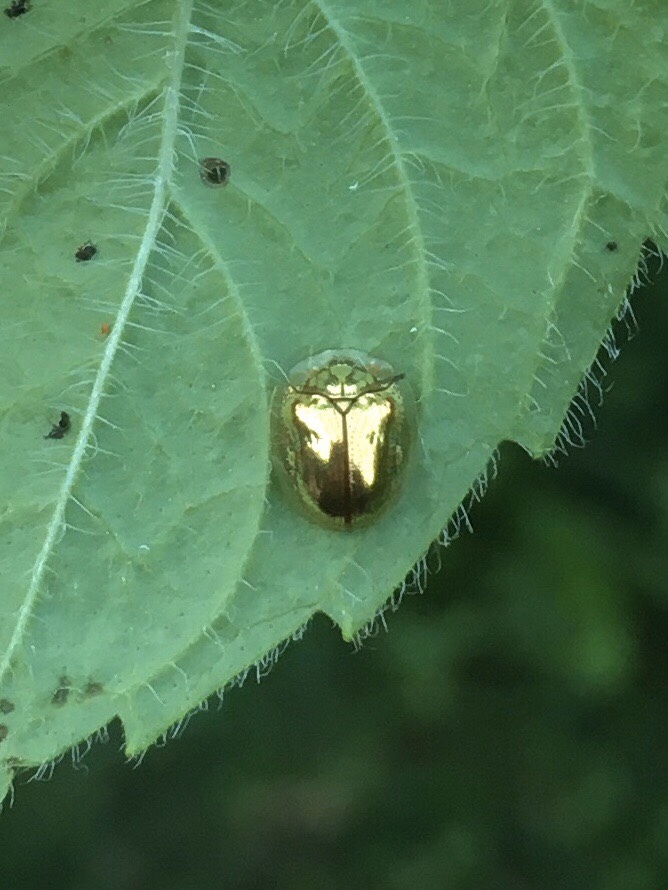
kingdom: Animalia
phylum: Arthropoda
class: Insecta
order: Coleoptera
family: Chrysomelidae
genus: Charidotella
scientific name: Charidotella sexpunctata
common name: Golden tortoise beetle
